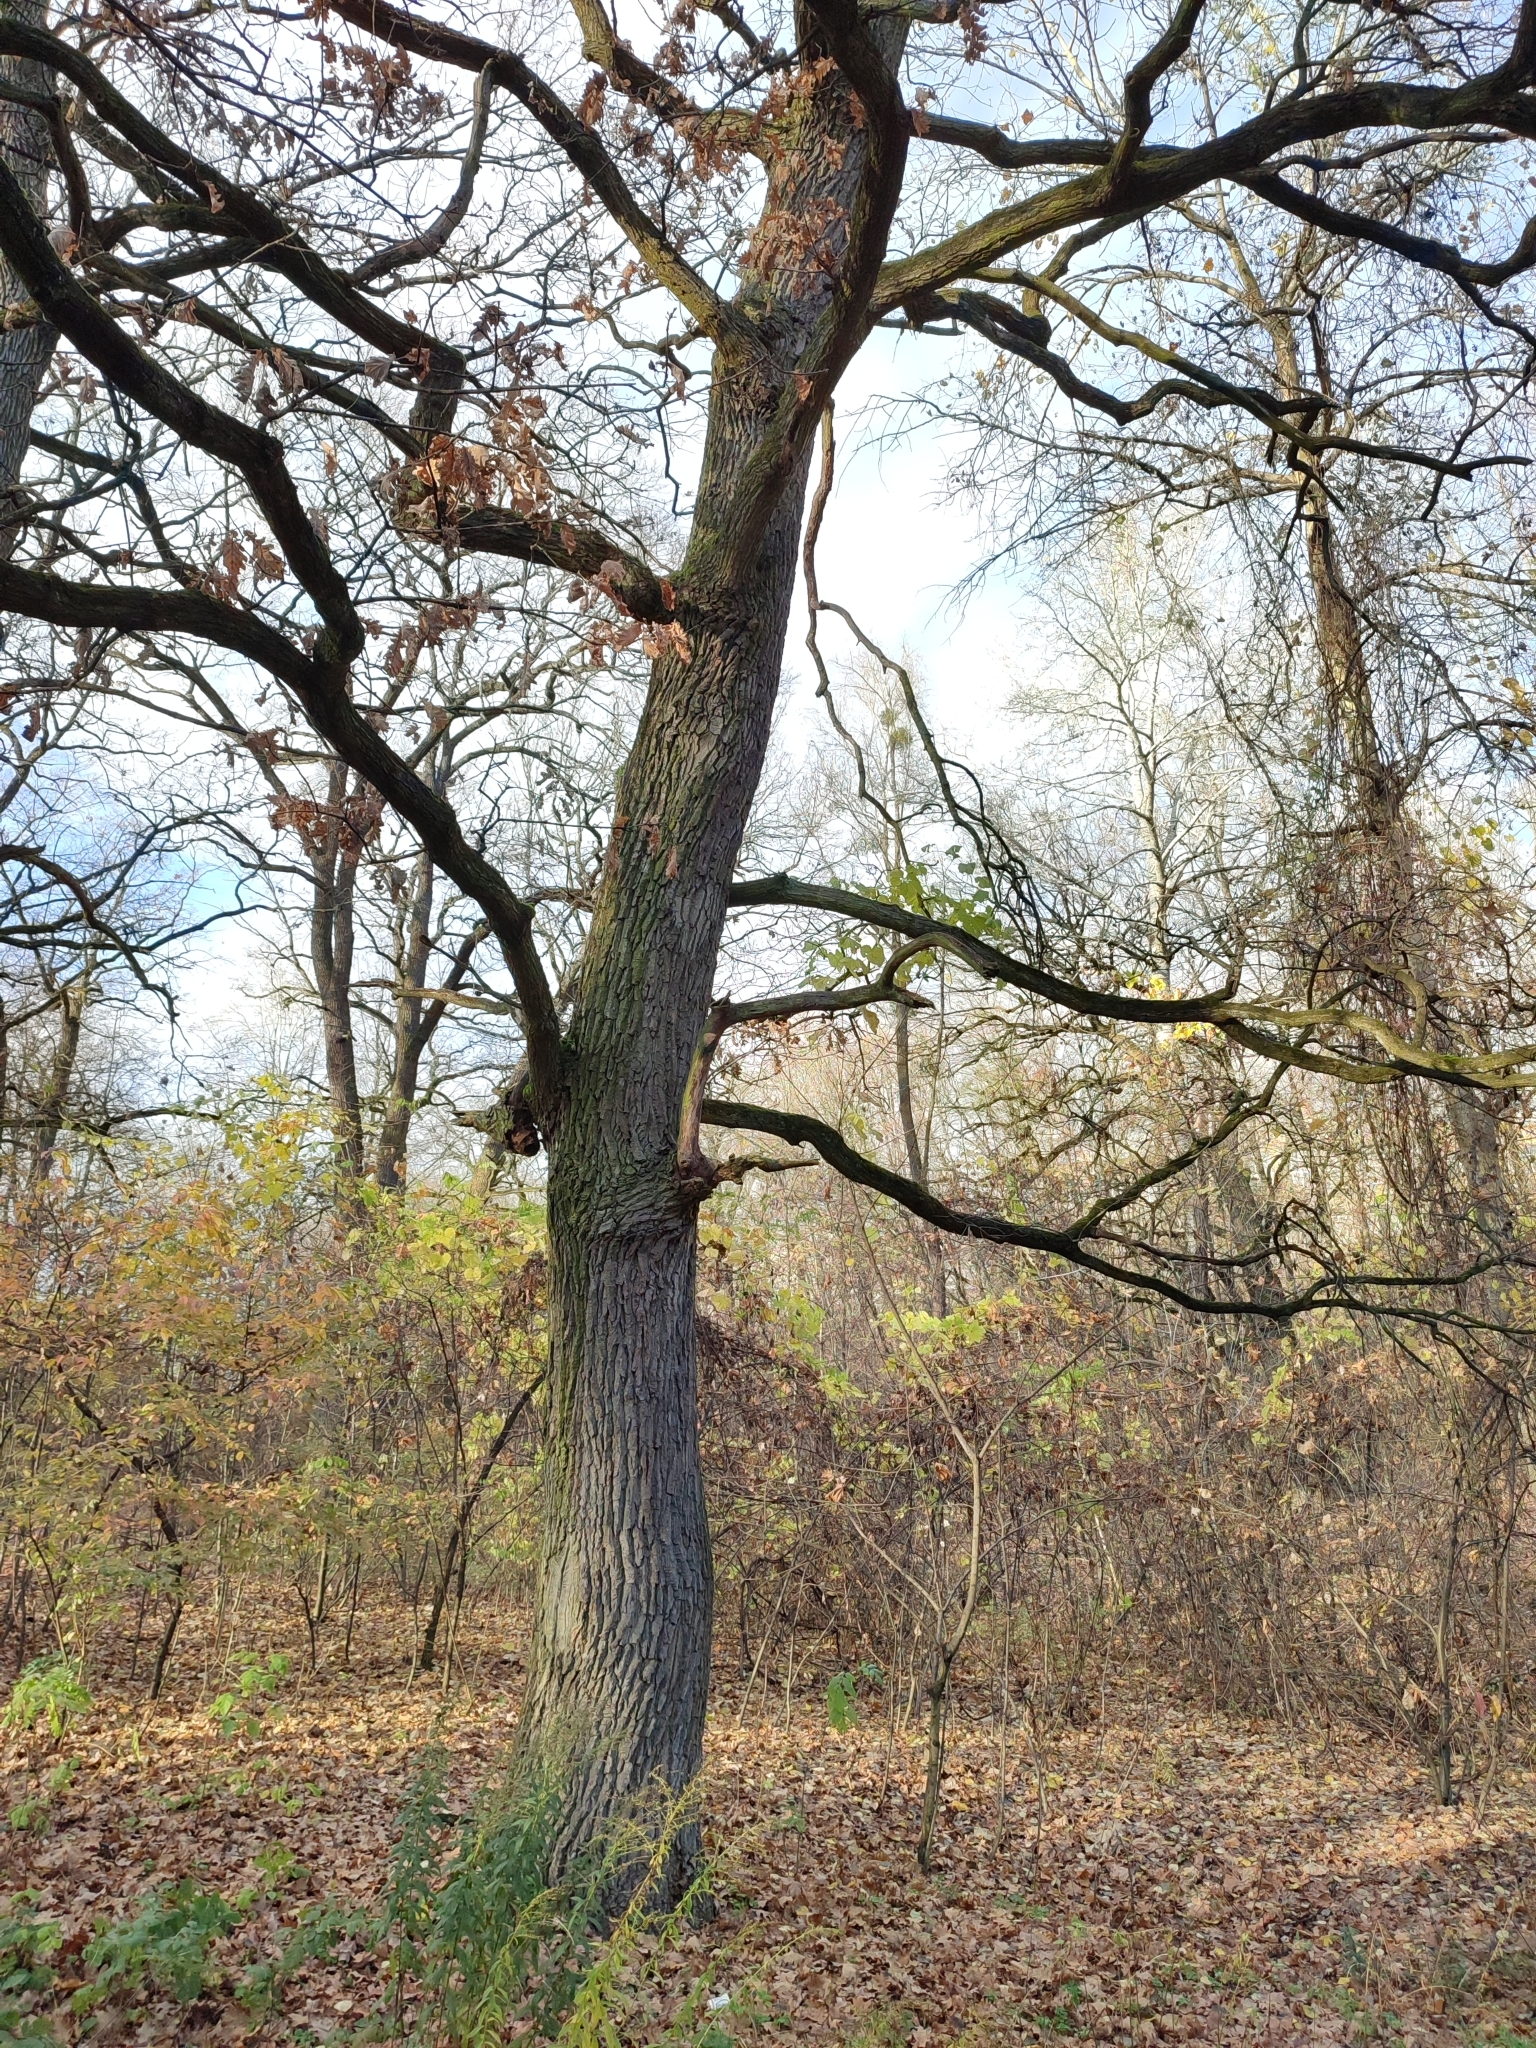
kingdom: Plantae
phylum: Tracheophyta
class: Magnoliopsida
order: Fagales
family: Fagaceae
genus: Quercus
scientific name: Quercus robur
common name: Pedunculate oak
